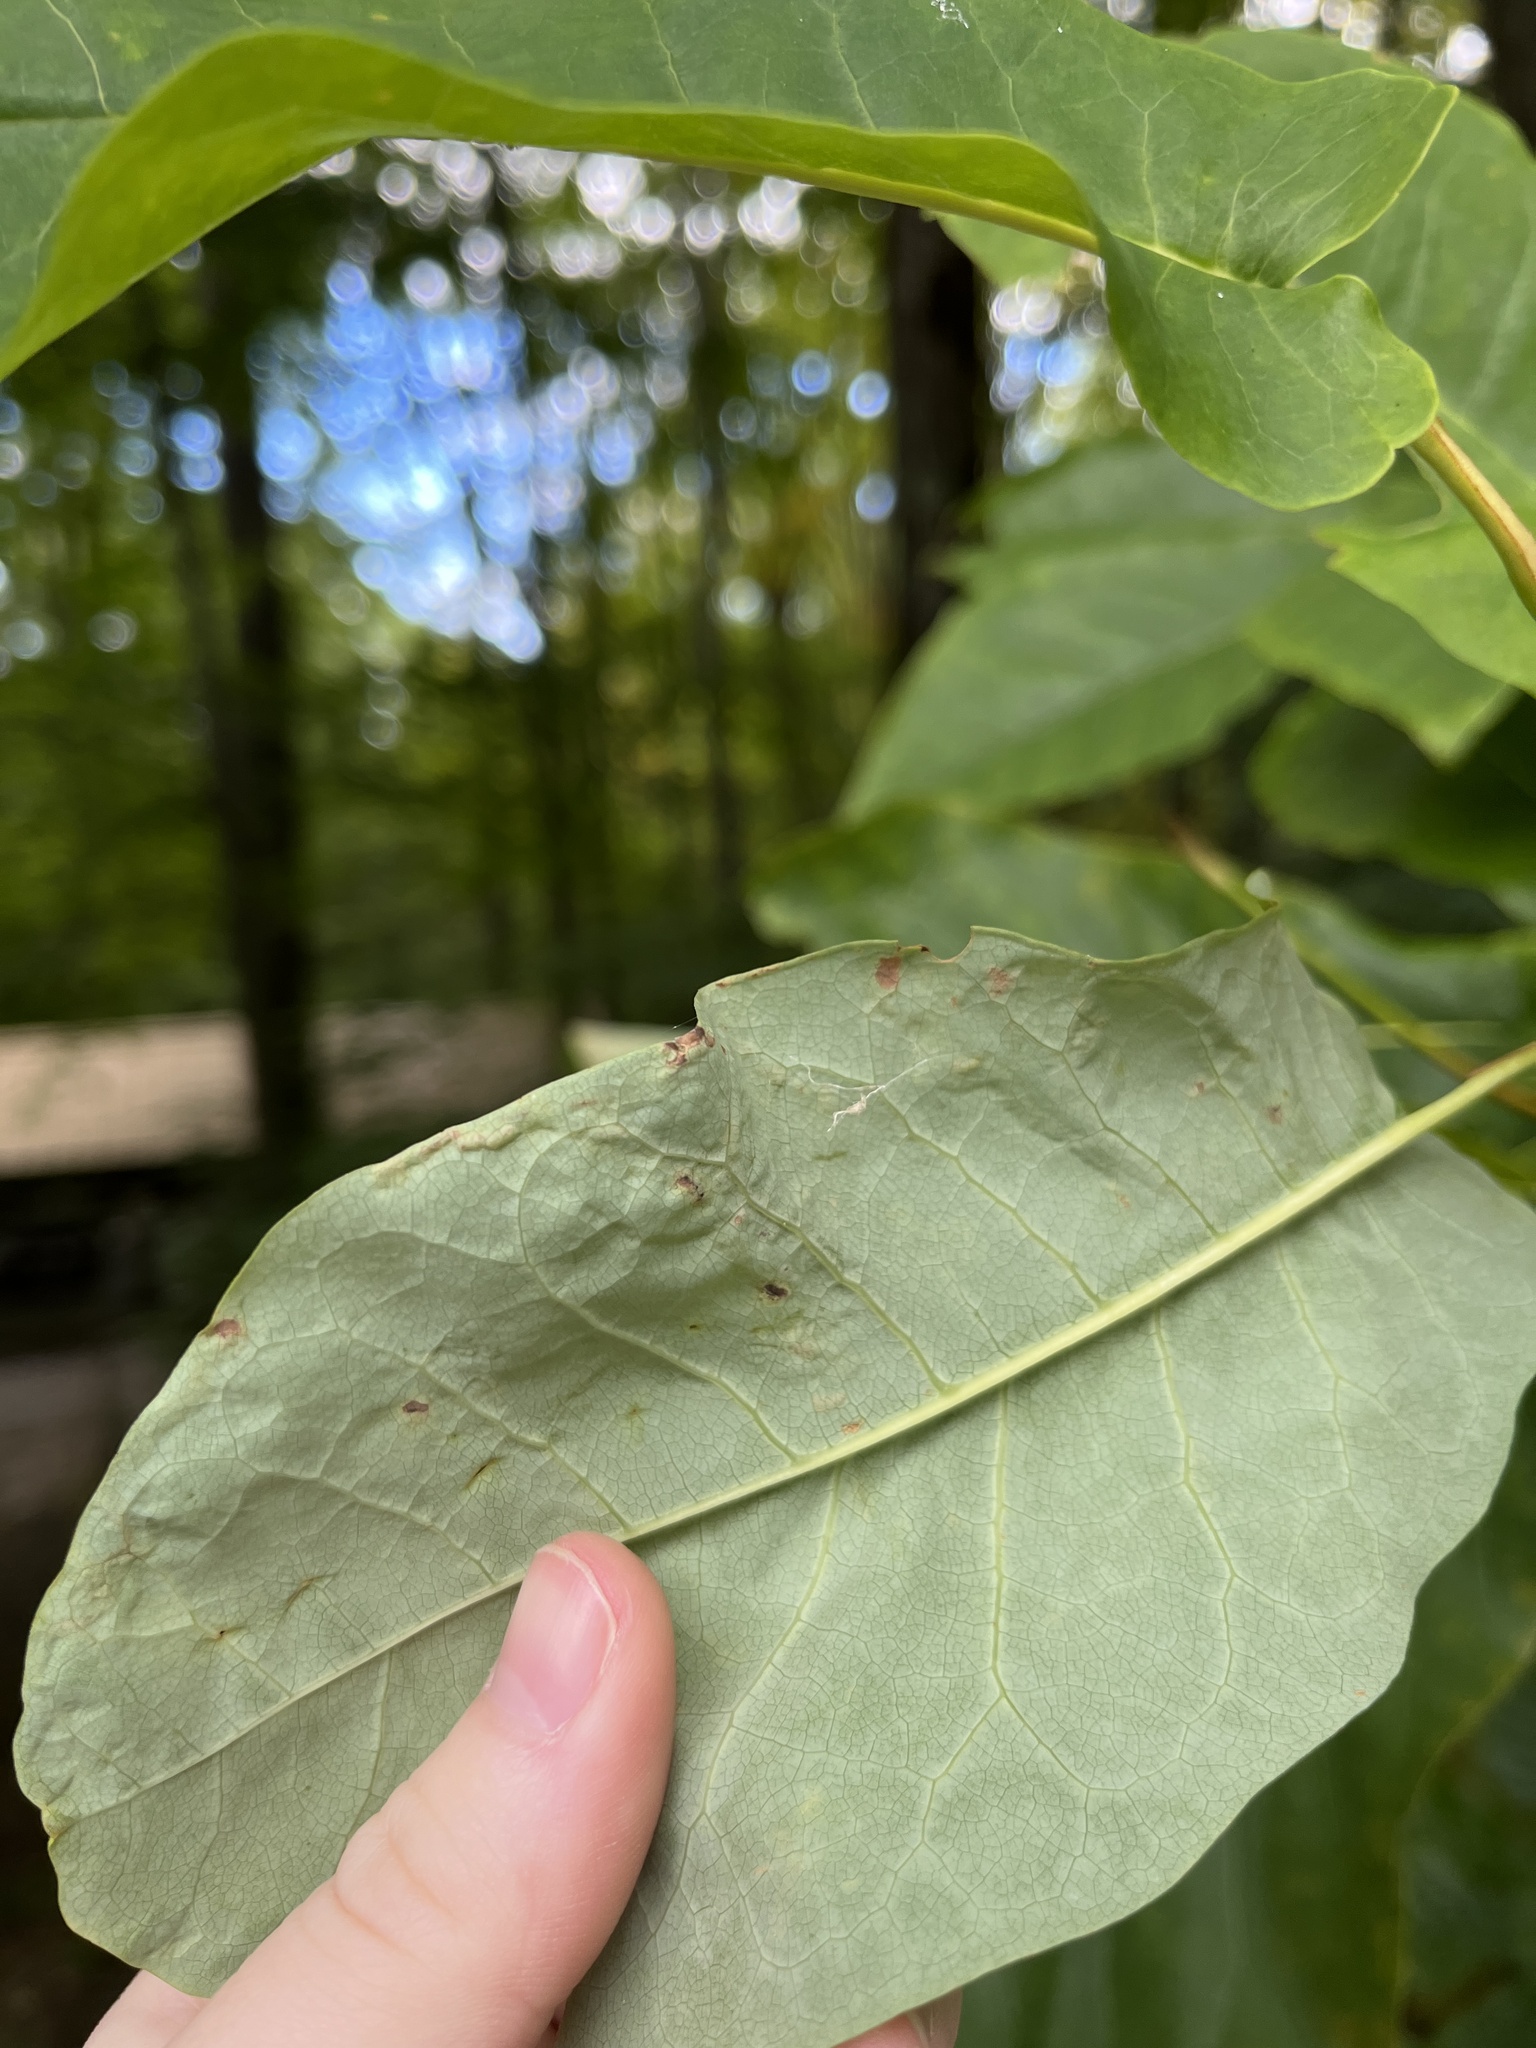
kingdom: Animalia
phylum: Arthropoda
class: Insecta
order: Lepidoptera
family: Gracillariidae
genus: Phyllocnistis
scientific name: Phyllocnistis liriodendronella
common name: Tulip tree leaf miner
